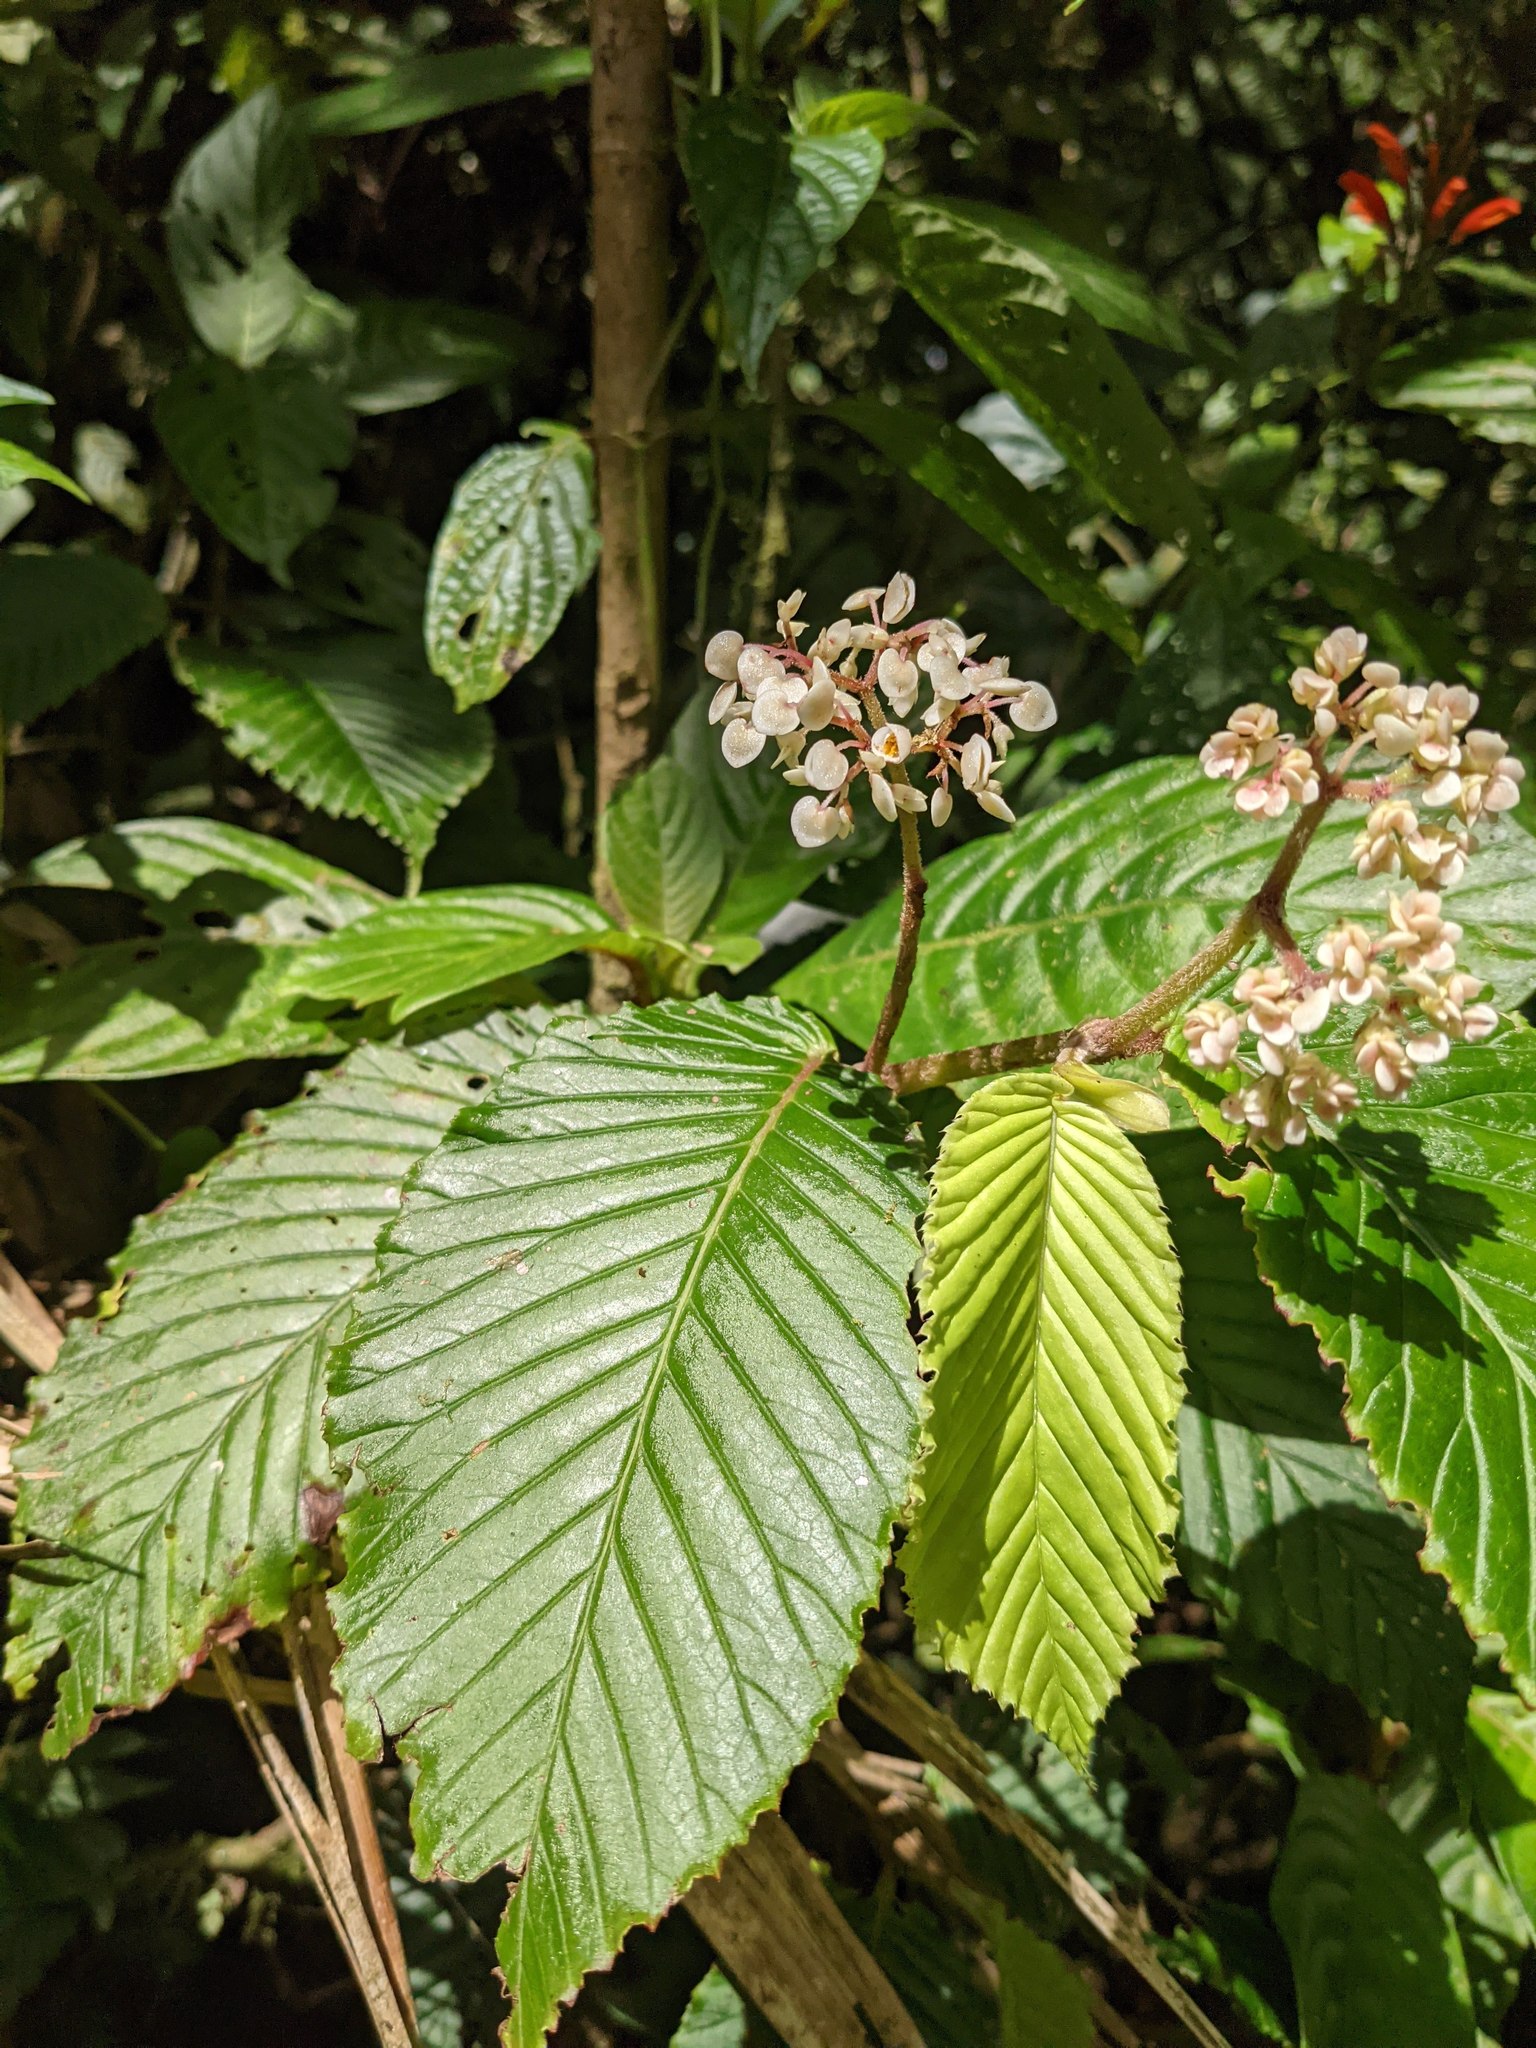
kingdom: Plantae
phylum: Tracheophyta
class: Magnoliopsida
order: Cucurbitales
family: Begoniaceae
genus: Begonia
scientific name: Begonia cooperi
